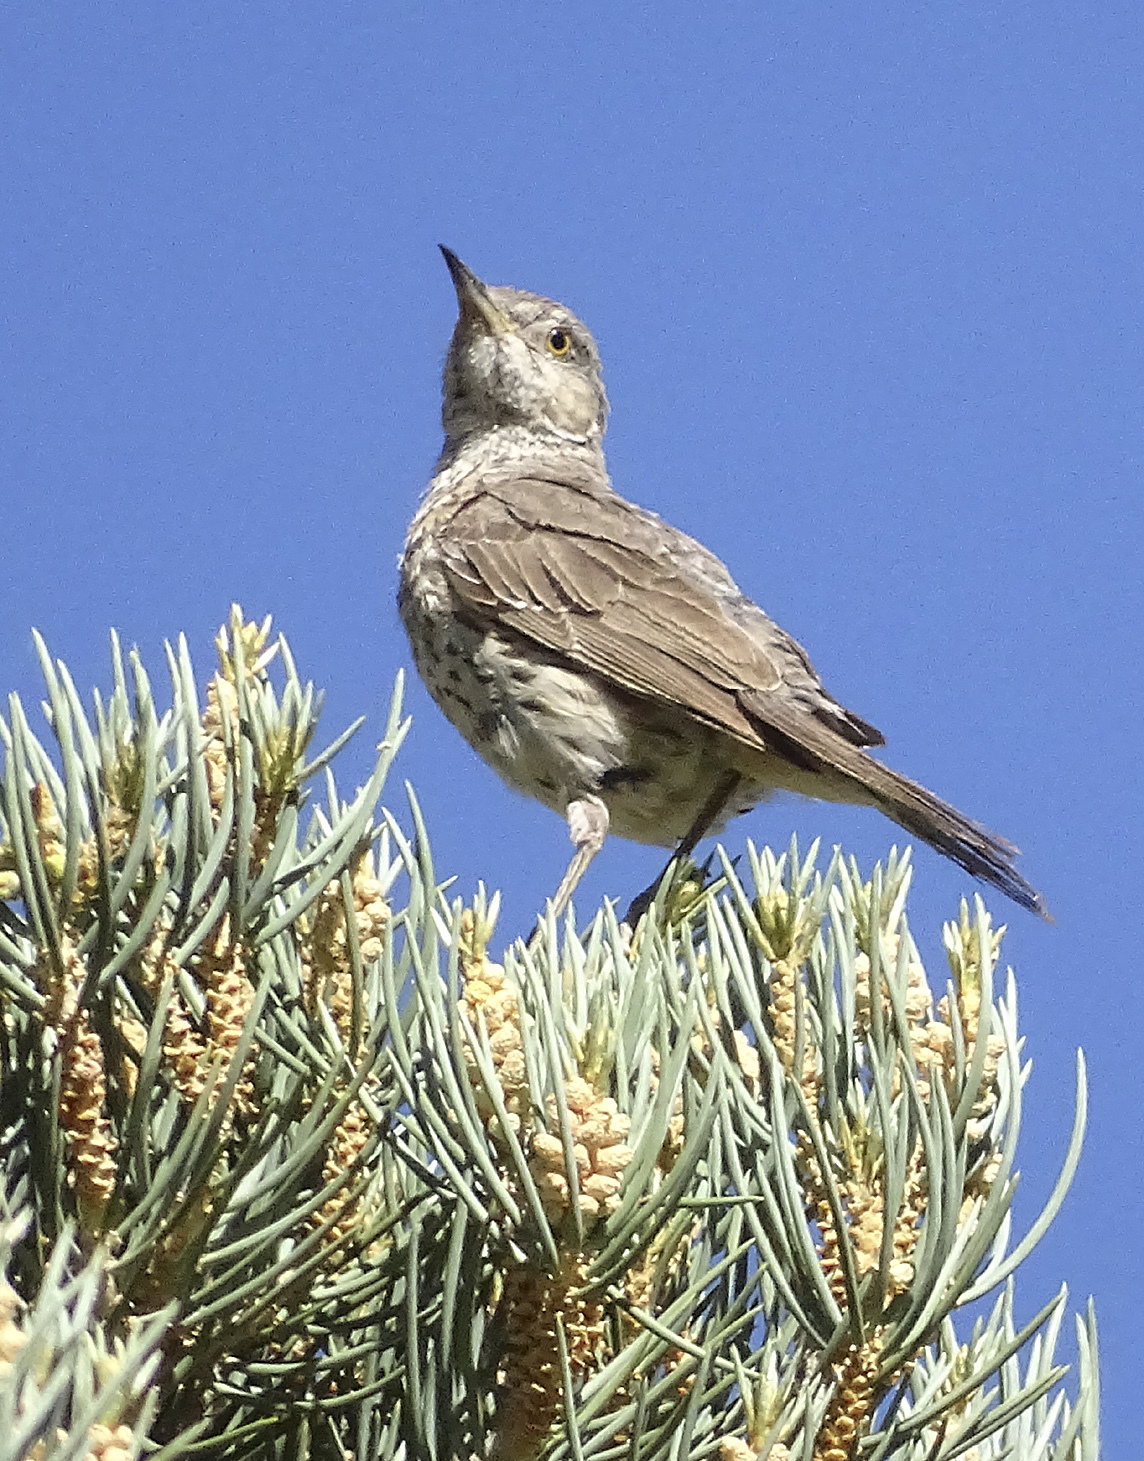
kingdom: Animalia
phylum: Chordata
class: Aves
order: Passeriformes
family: Mimidae
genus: Oreoscoptes
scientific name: Oreoscoptes montanus
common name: Sage thrasher
